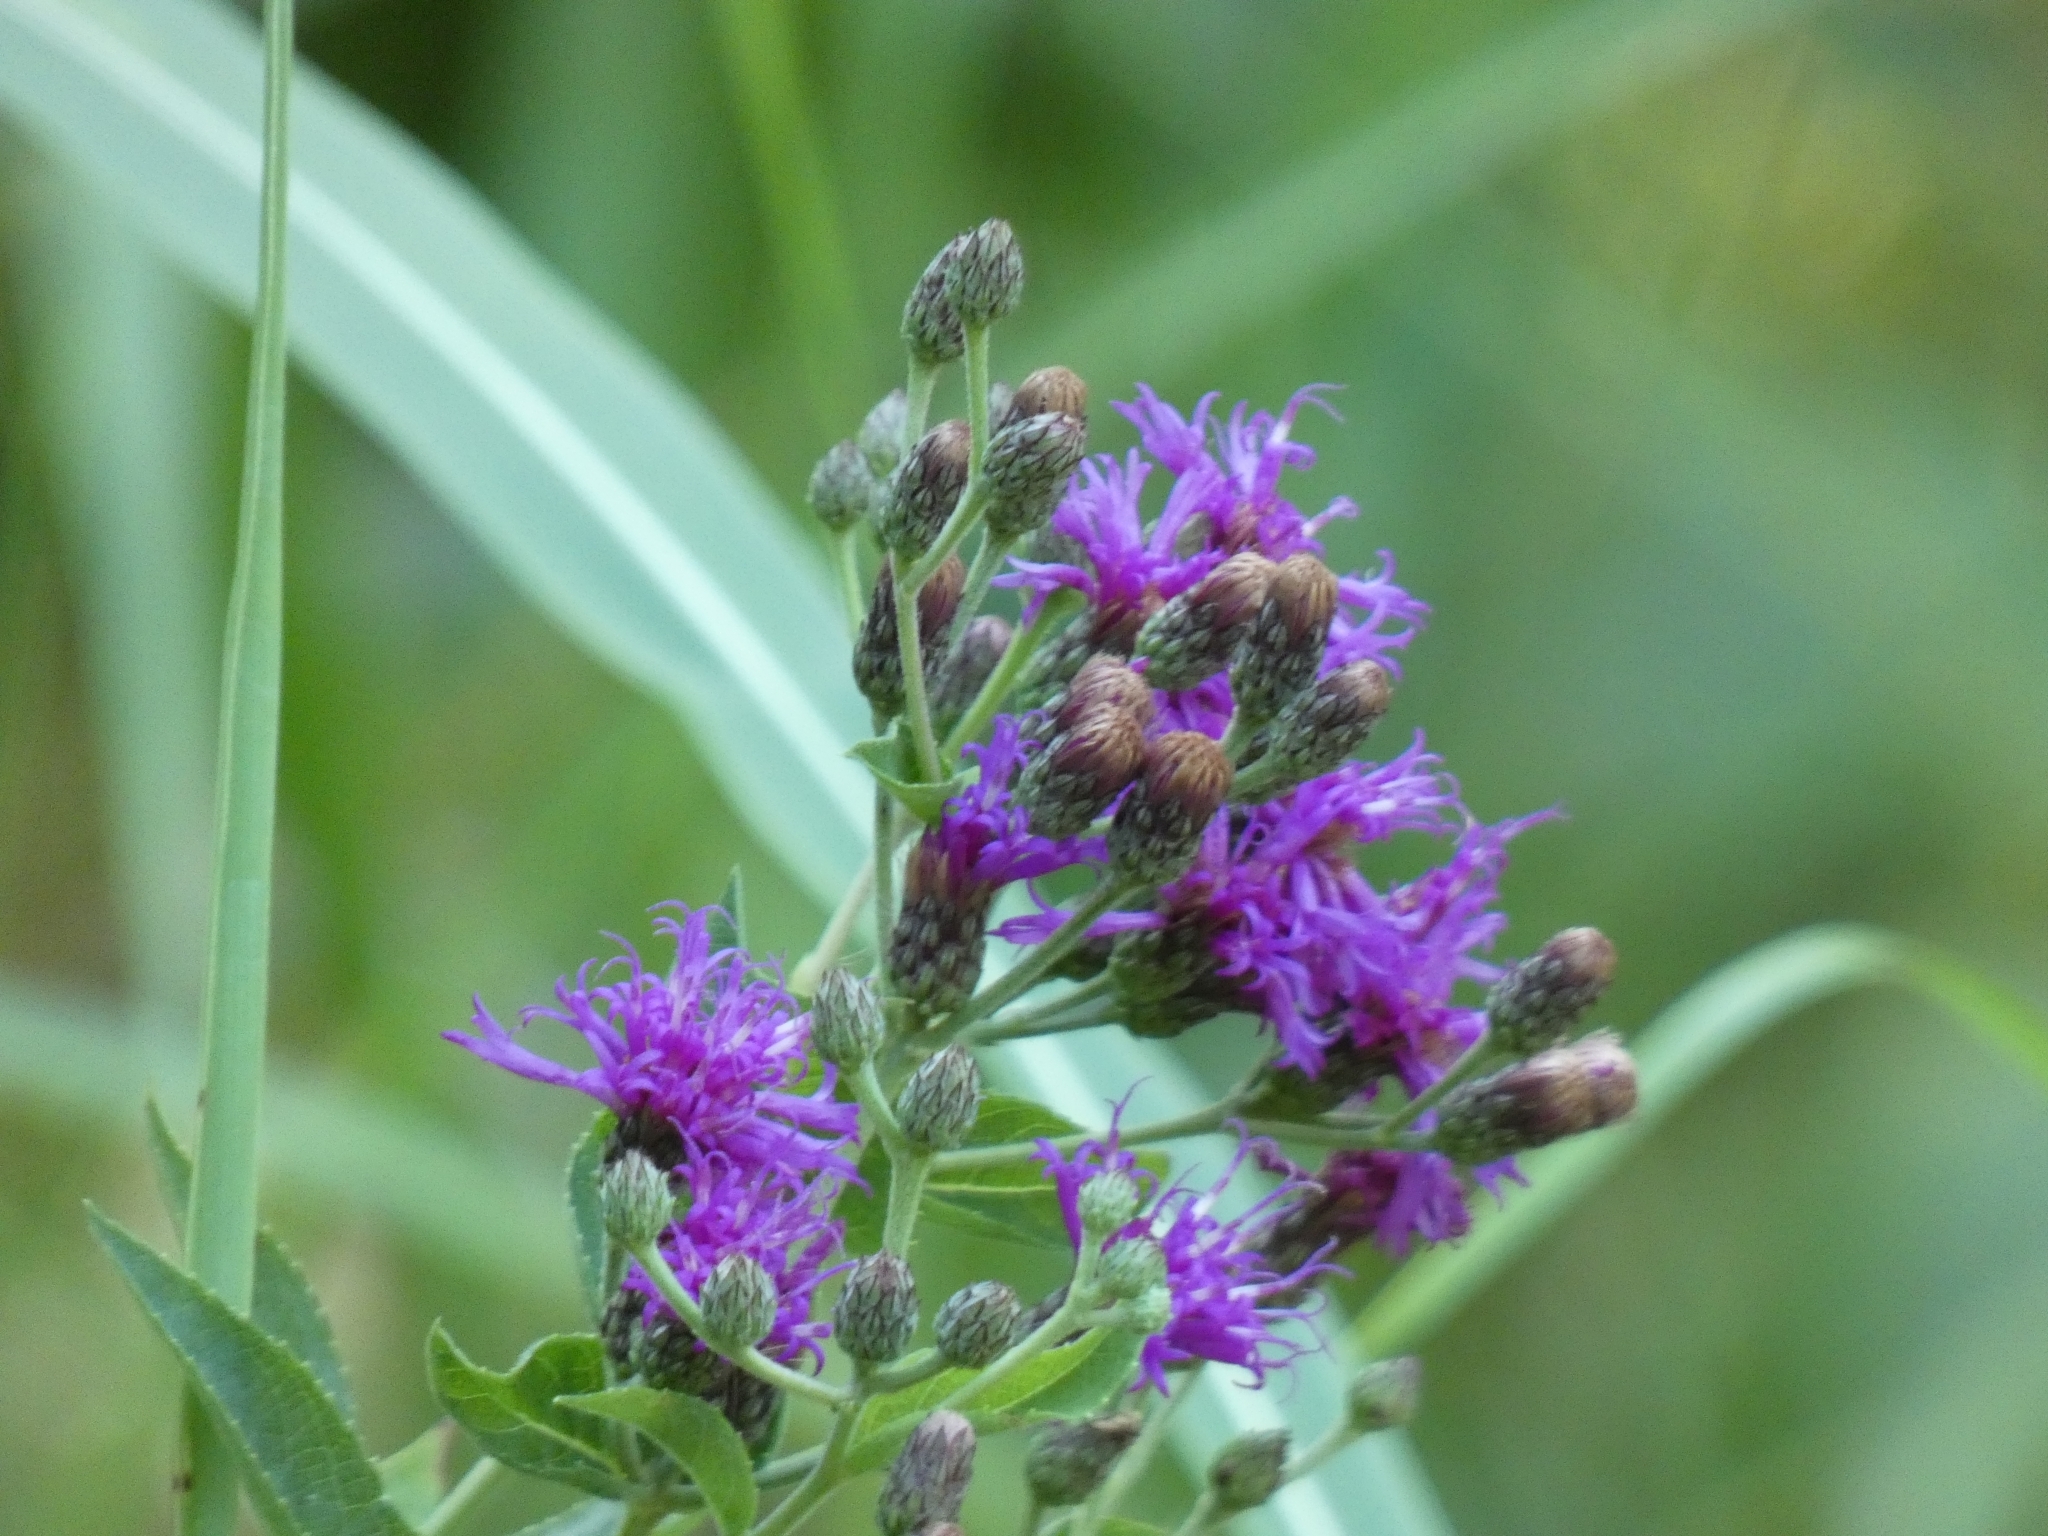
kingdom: Plantae
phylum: Tracheophyta
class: Magnoliopsida
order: Asterales
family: Asteraceae
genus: Vernonia
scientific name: Vernonia baldwinii
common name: Western ironweed
